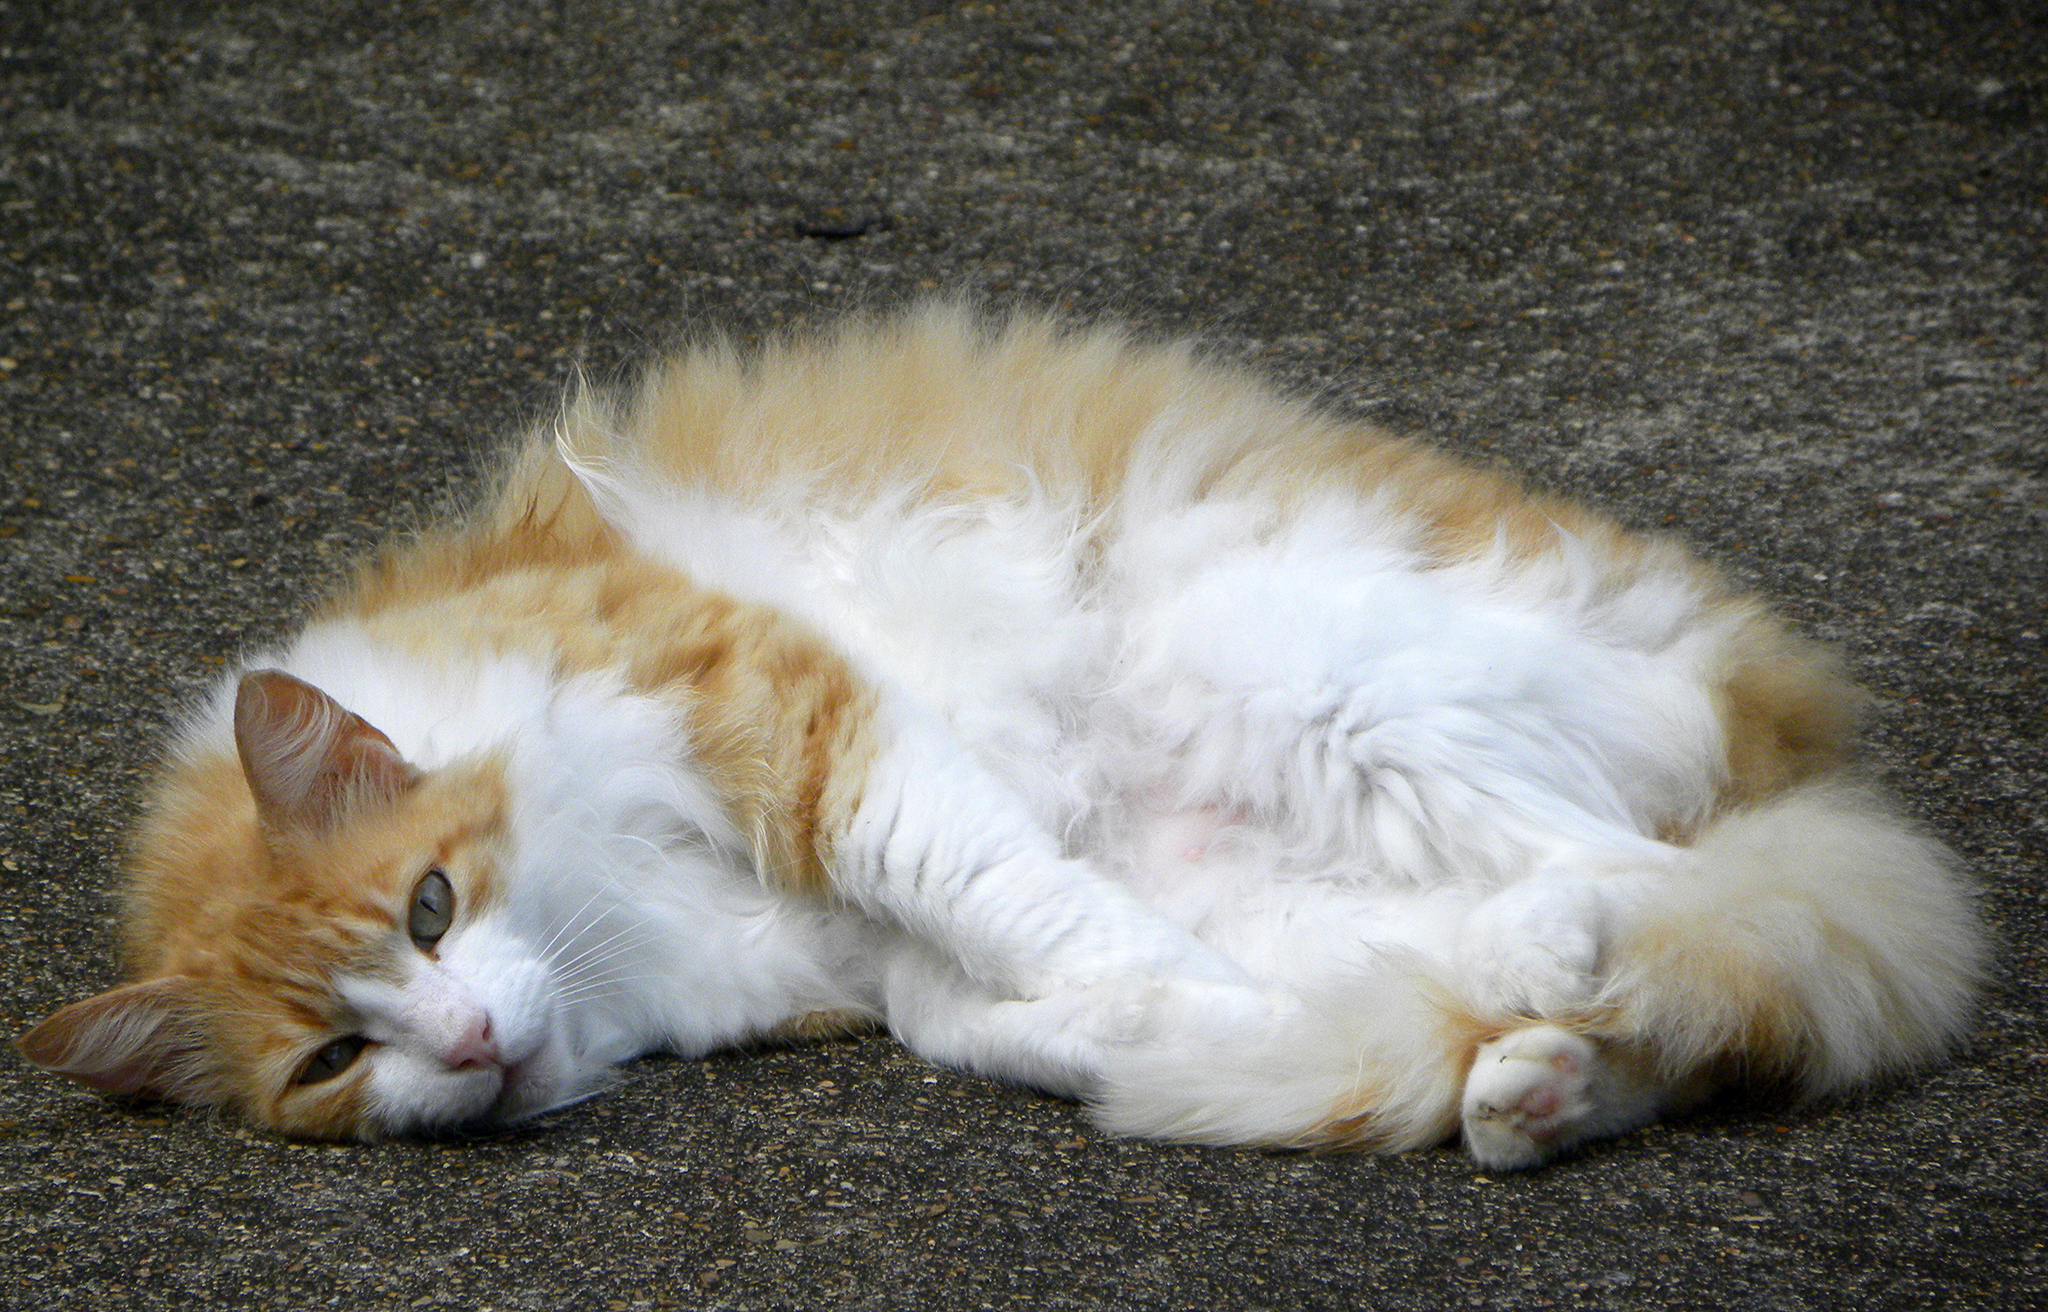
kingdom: Animalia
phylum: Chordata
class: Mammalia
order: Carnivora
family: Felidae
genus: Felis
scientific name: Felis catus
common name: Domestic cat
